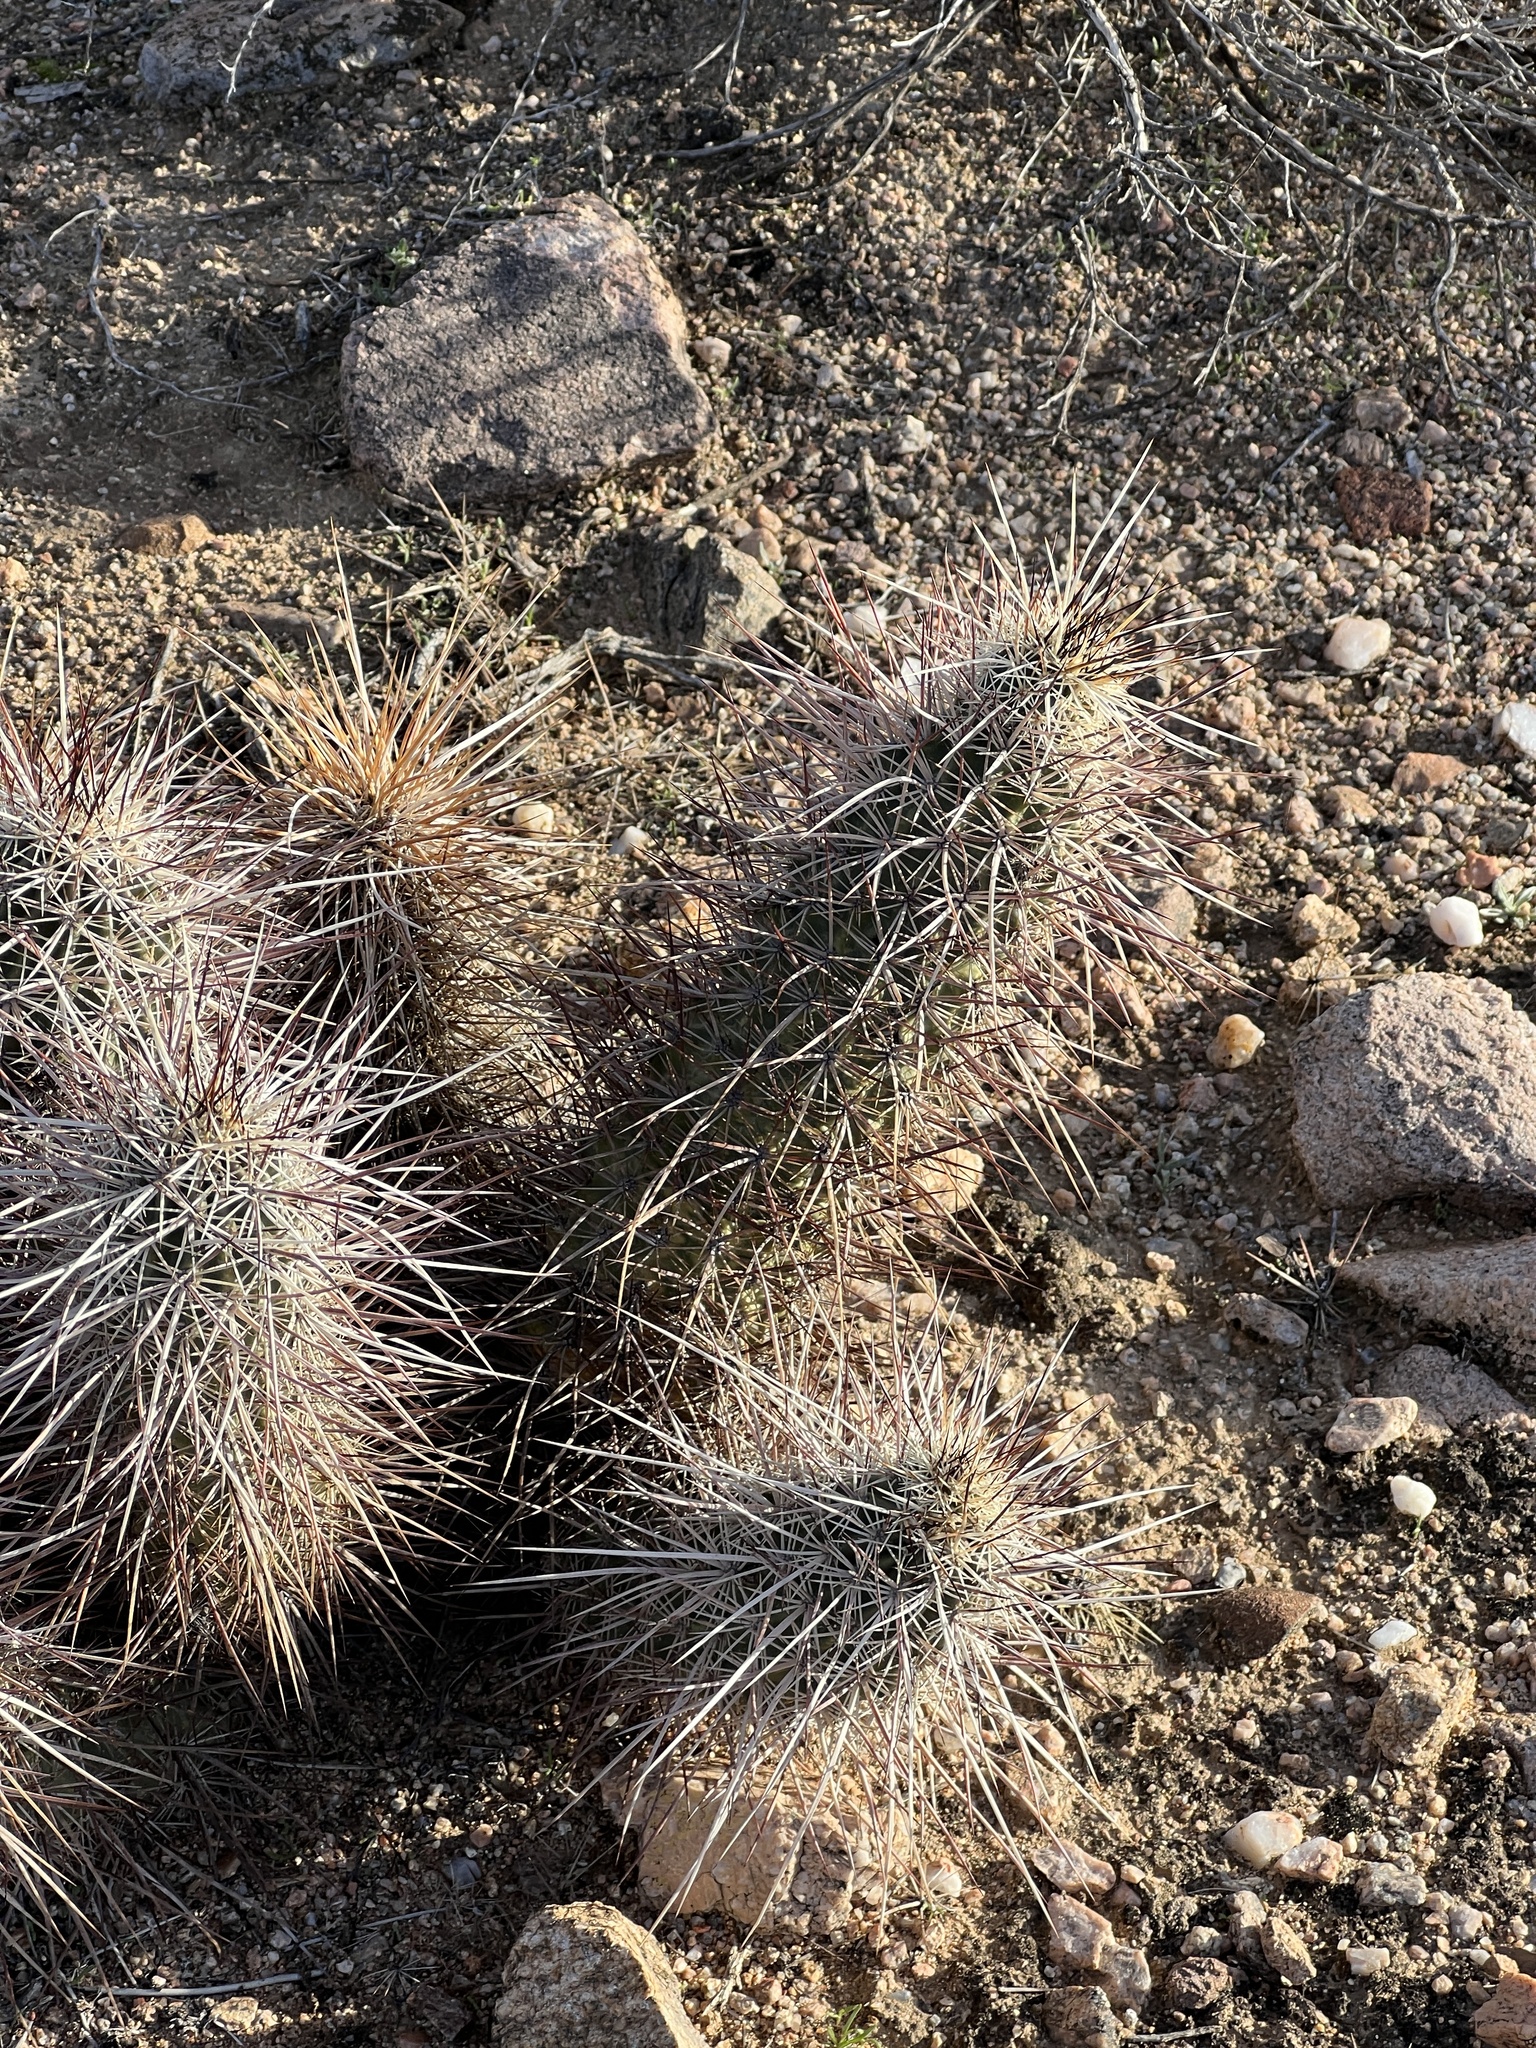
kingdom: Plantae
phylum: Tracheophyta
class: Magnoliopsida
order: Caryophyllales
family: Cactaceae
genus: Echinocereus
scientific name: Echinocereus engelmannii
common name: Engelmann's hedgehog cactus
